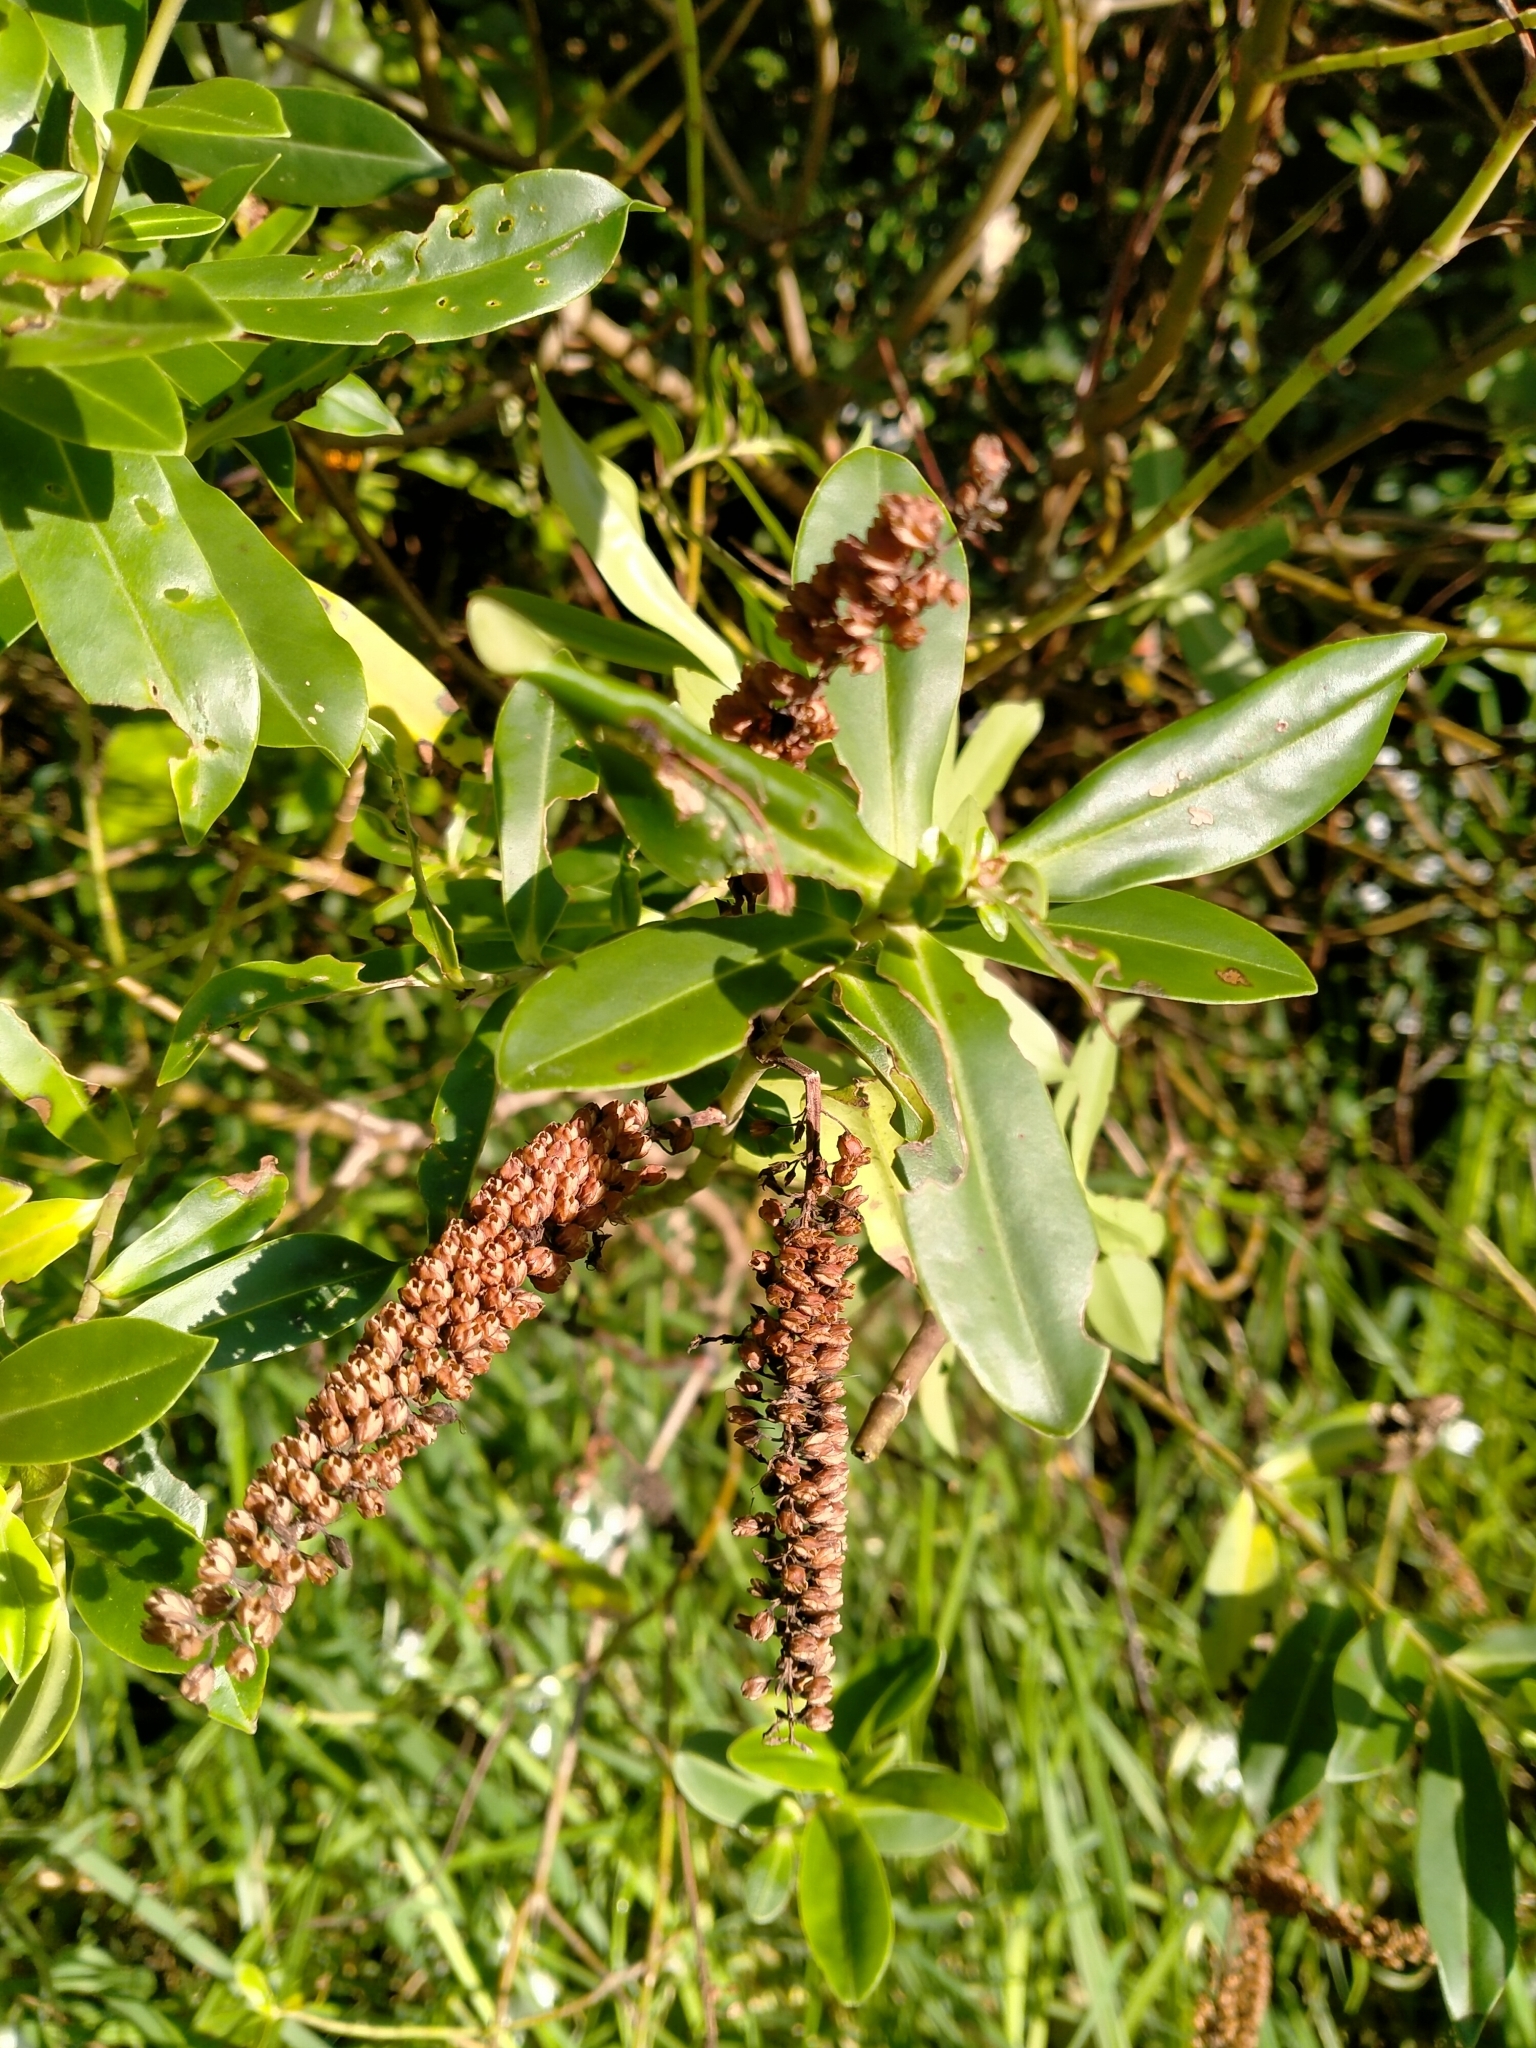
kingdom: Plantae
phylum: Tracheophyta
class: Magnoliopsida
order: Lamiales
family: Plantaginaceae
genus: Veronica
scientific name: Veronica stricta
